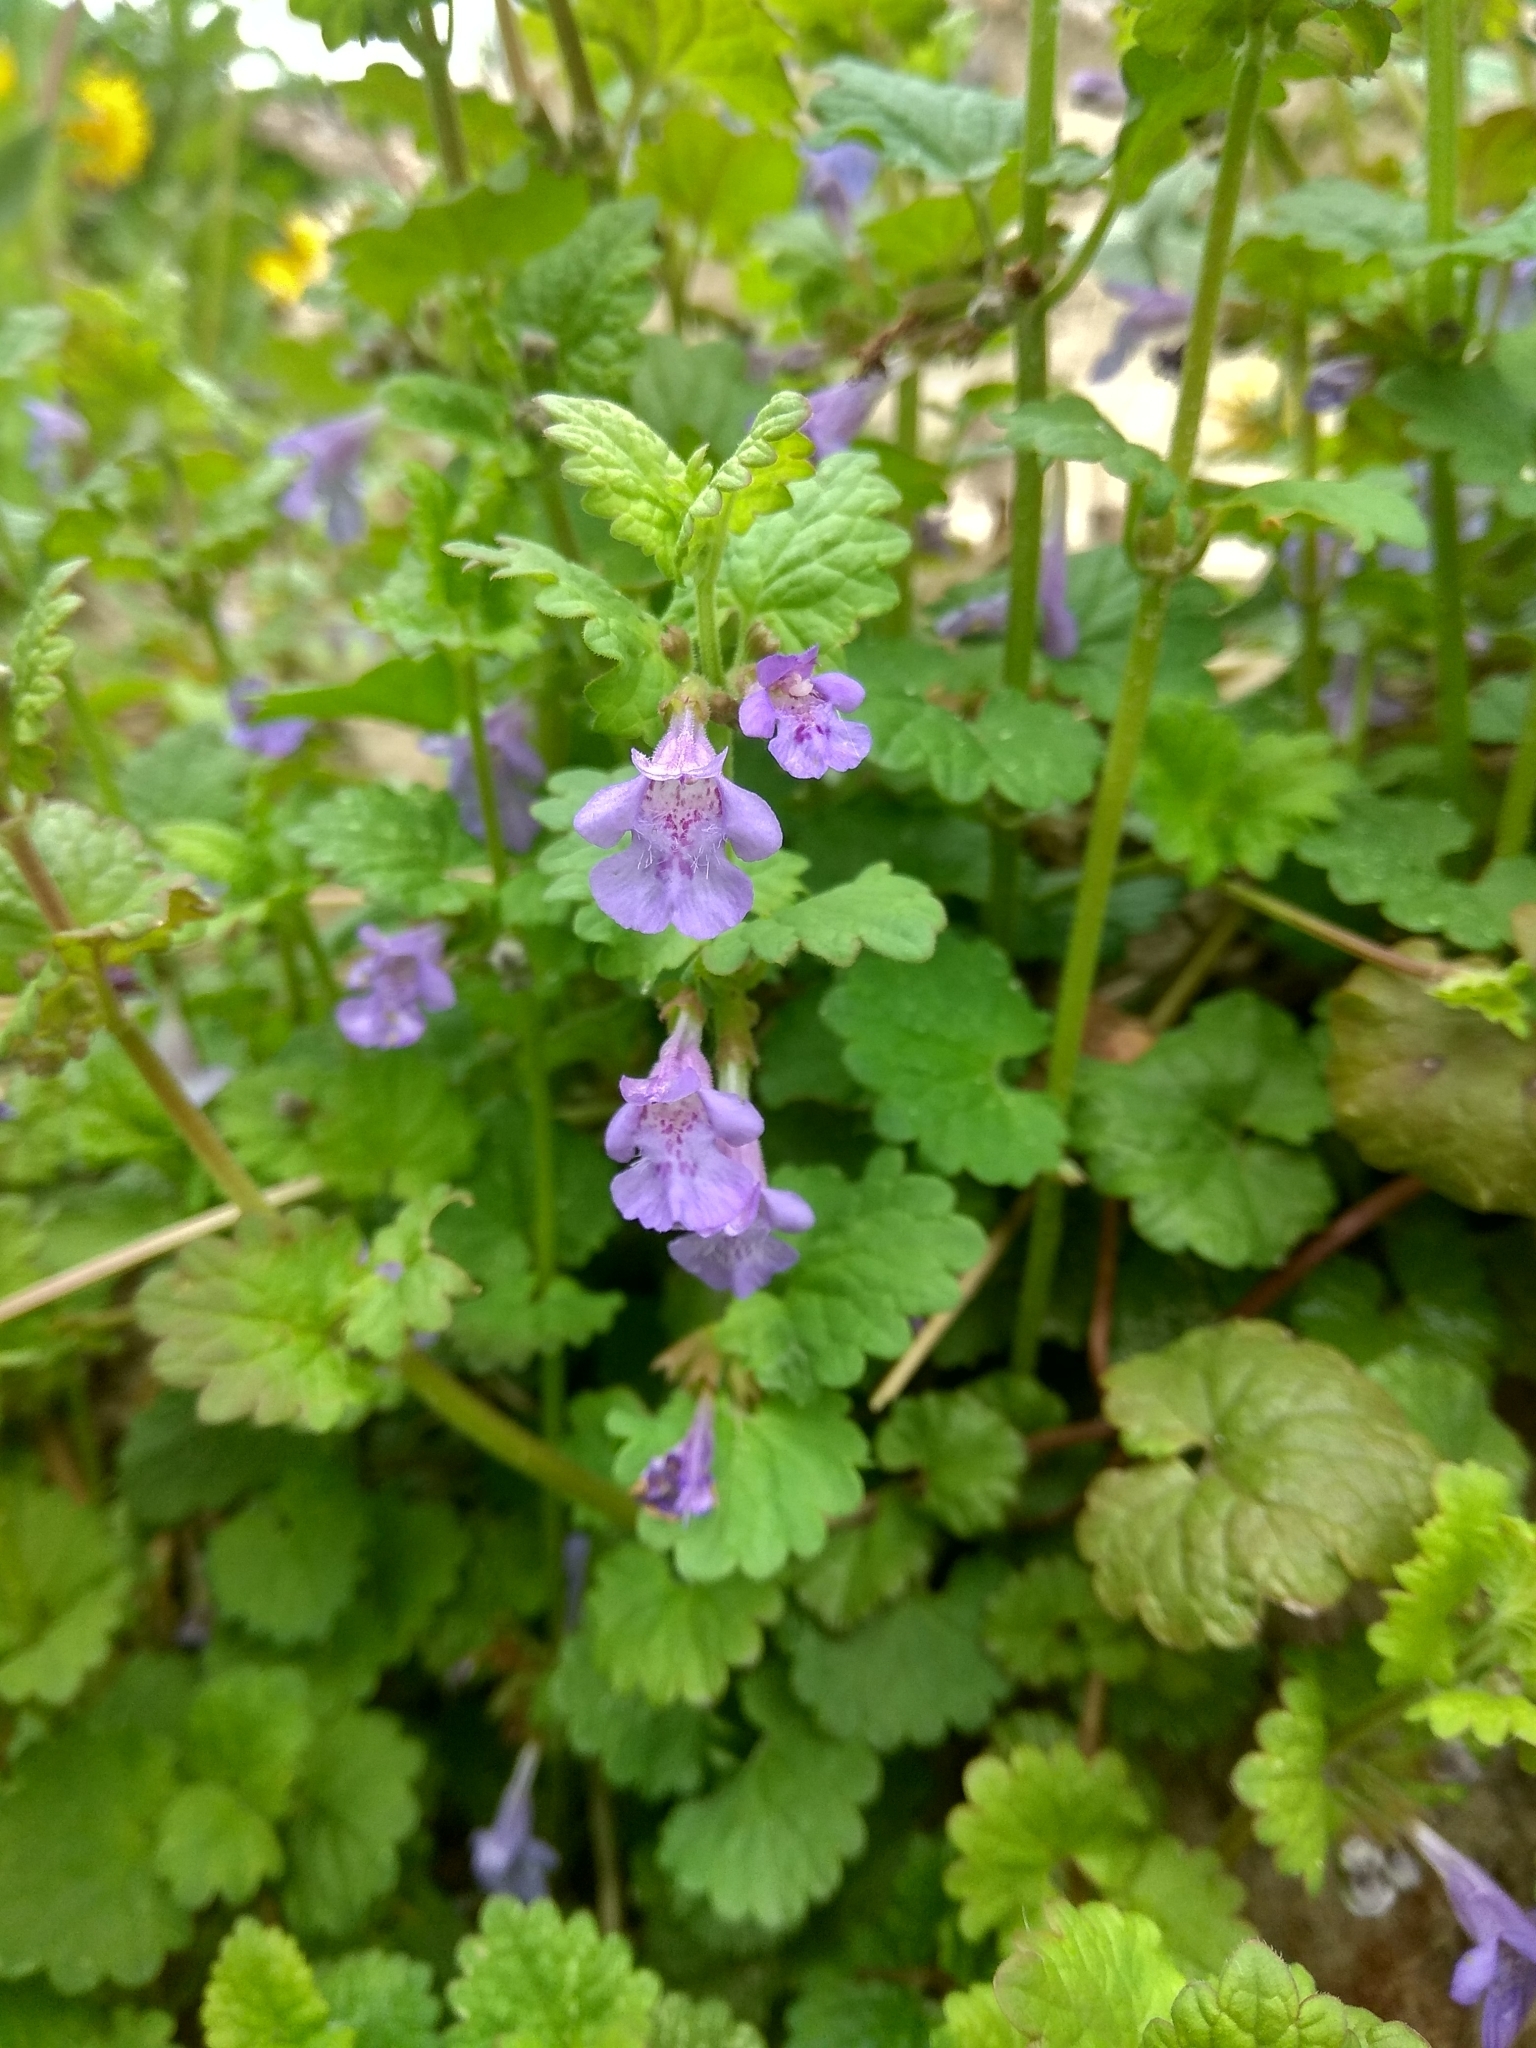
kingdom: Plantae
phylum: Tracheophyta
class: Magnoliopsida
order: Lamiales
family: Lamiaceae
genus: Glechoma
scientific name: Glechoma hederacea
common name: Ground ivy
